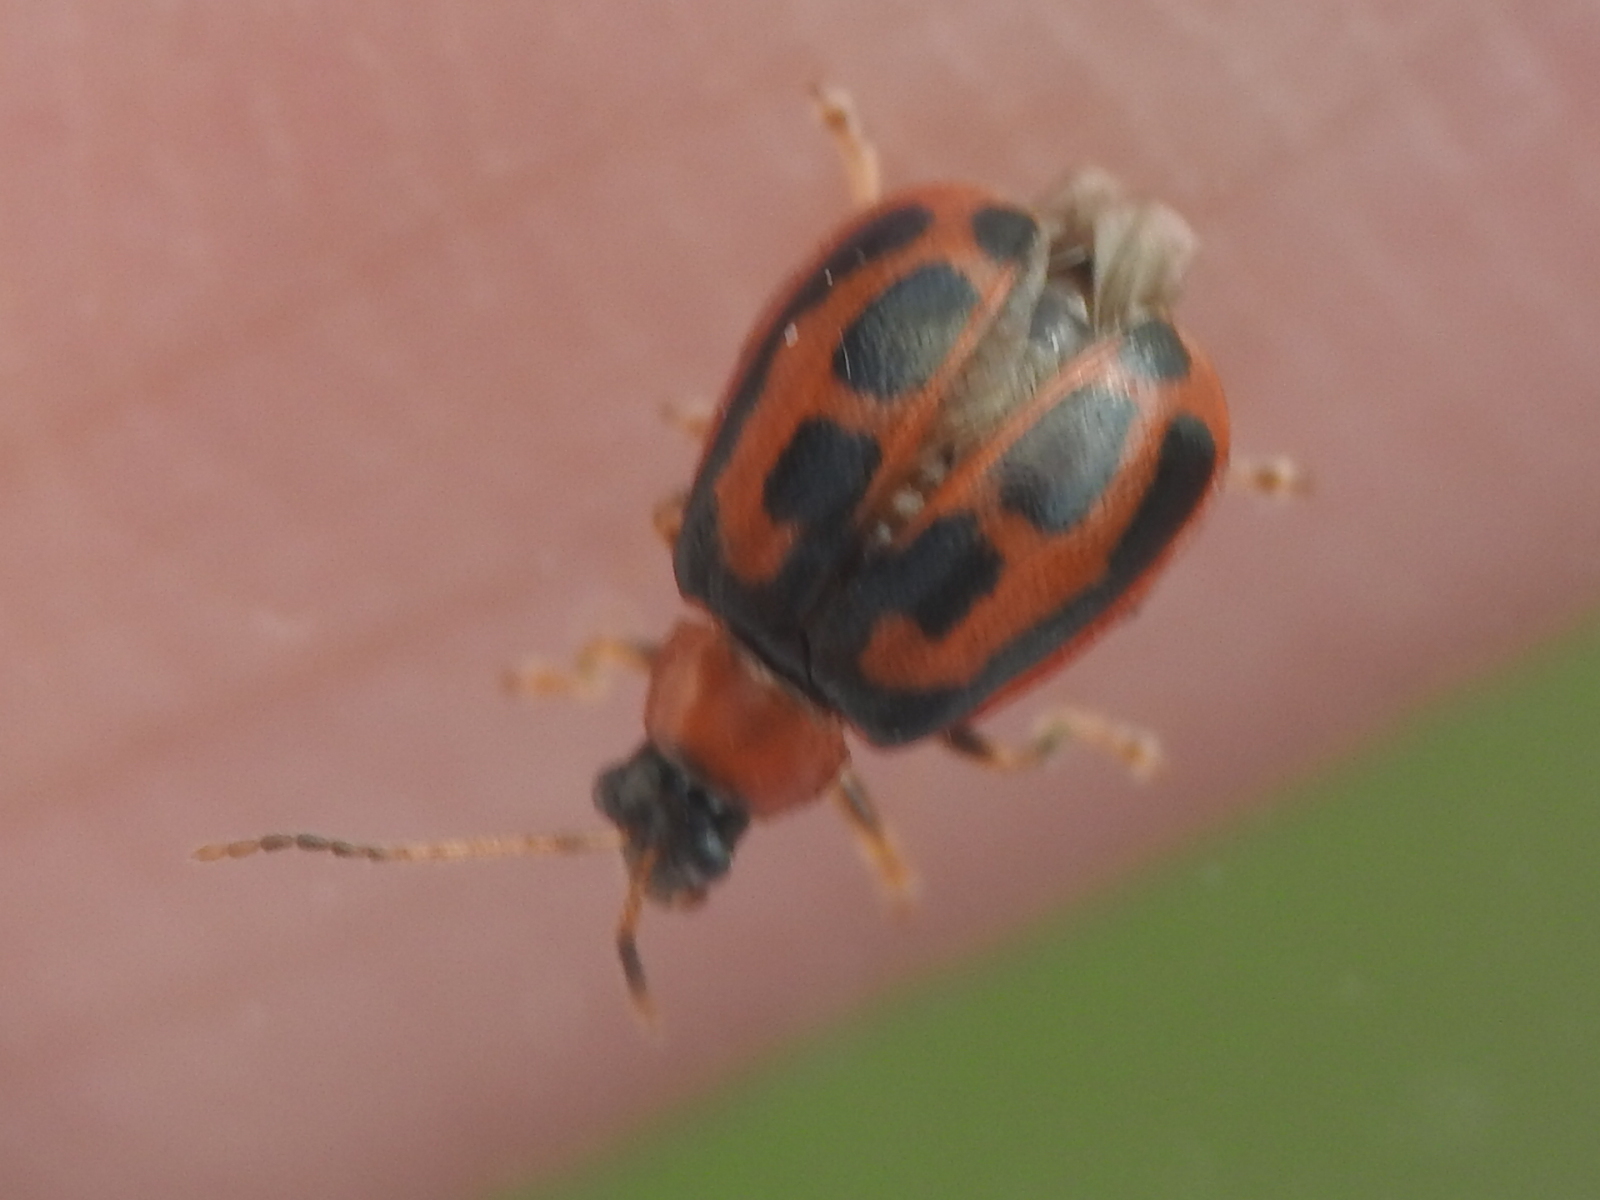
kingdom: Animalia
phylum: Arthropoda
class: Insecta
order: Coleoptera
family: Chrysomelidae
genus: Cerotoma
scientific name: Cerotoma trifurcata
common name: Bean leaf beetle
